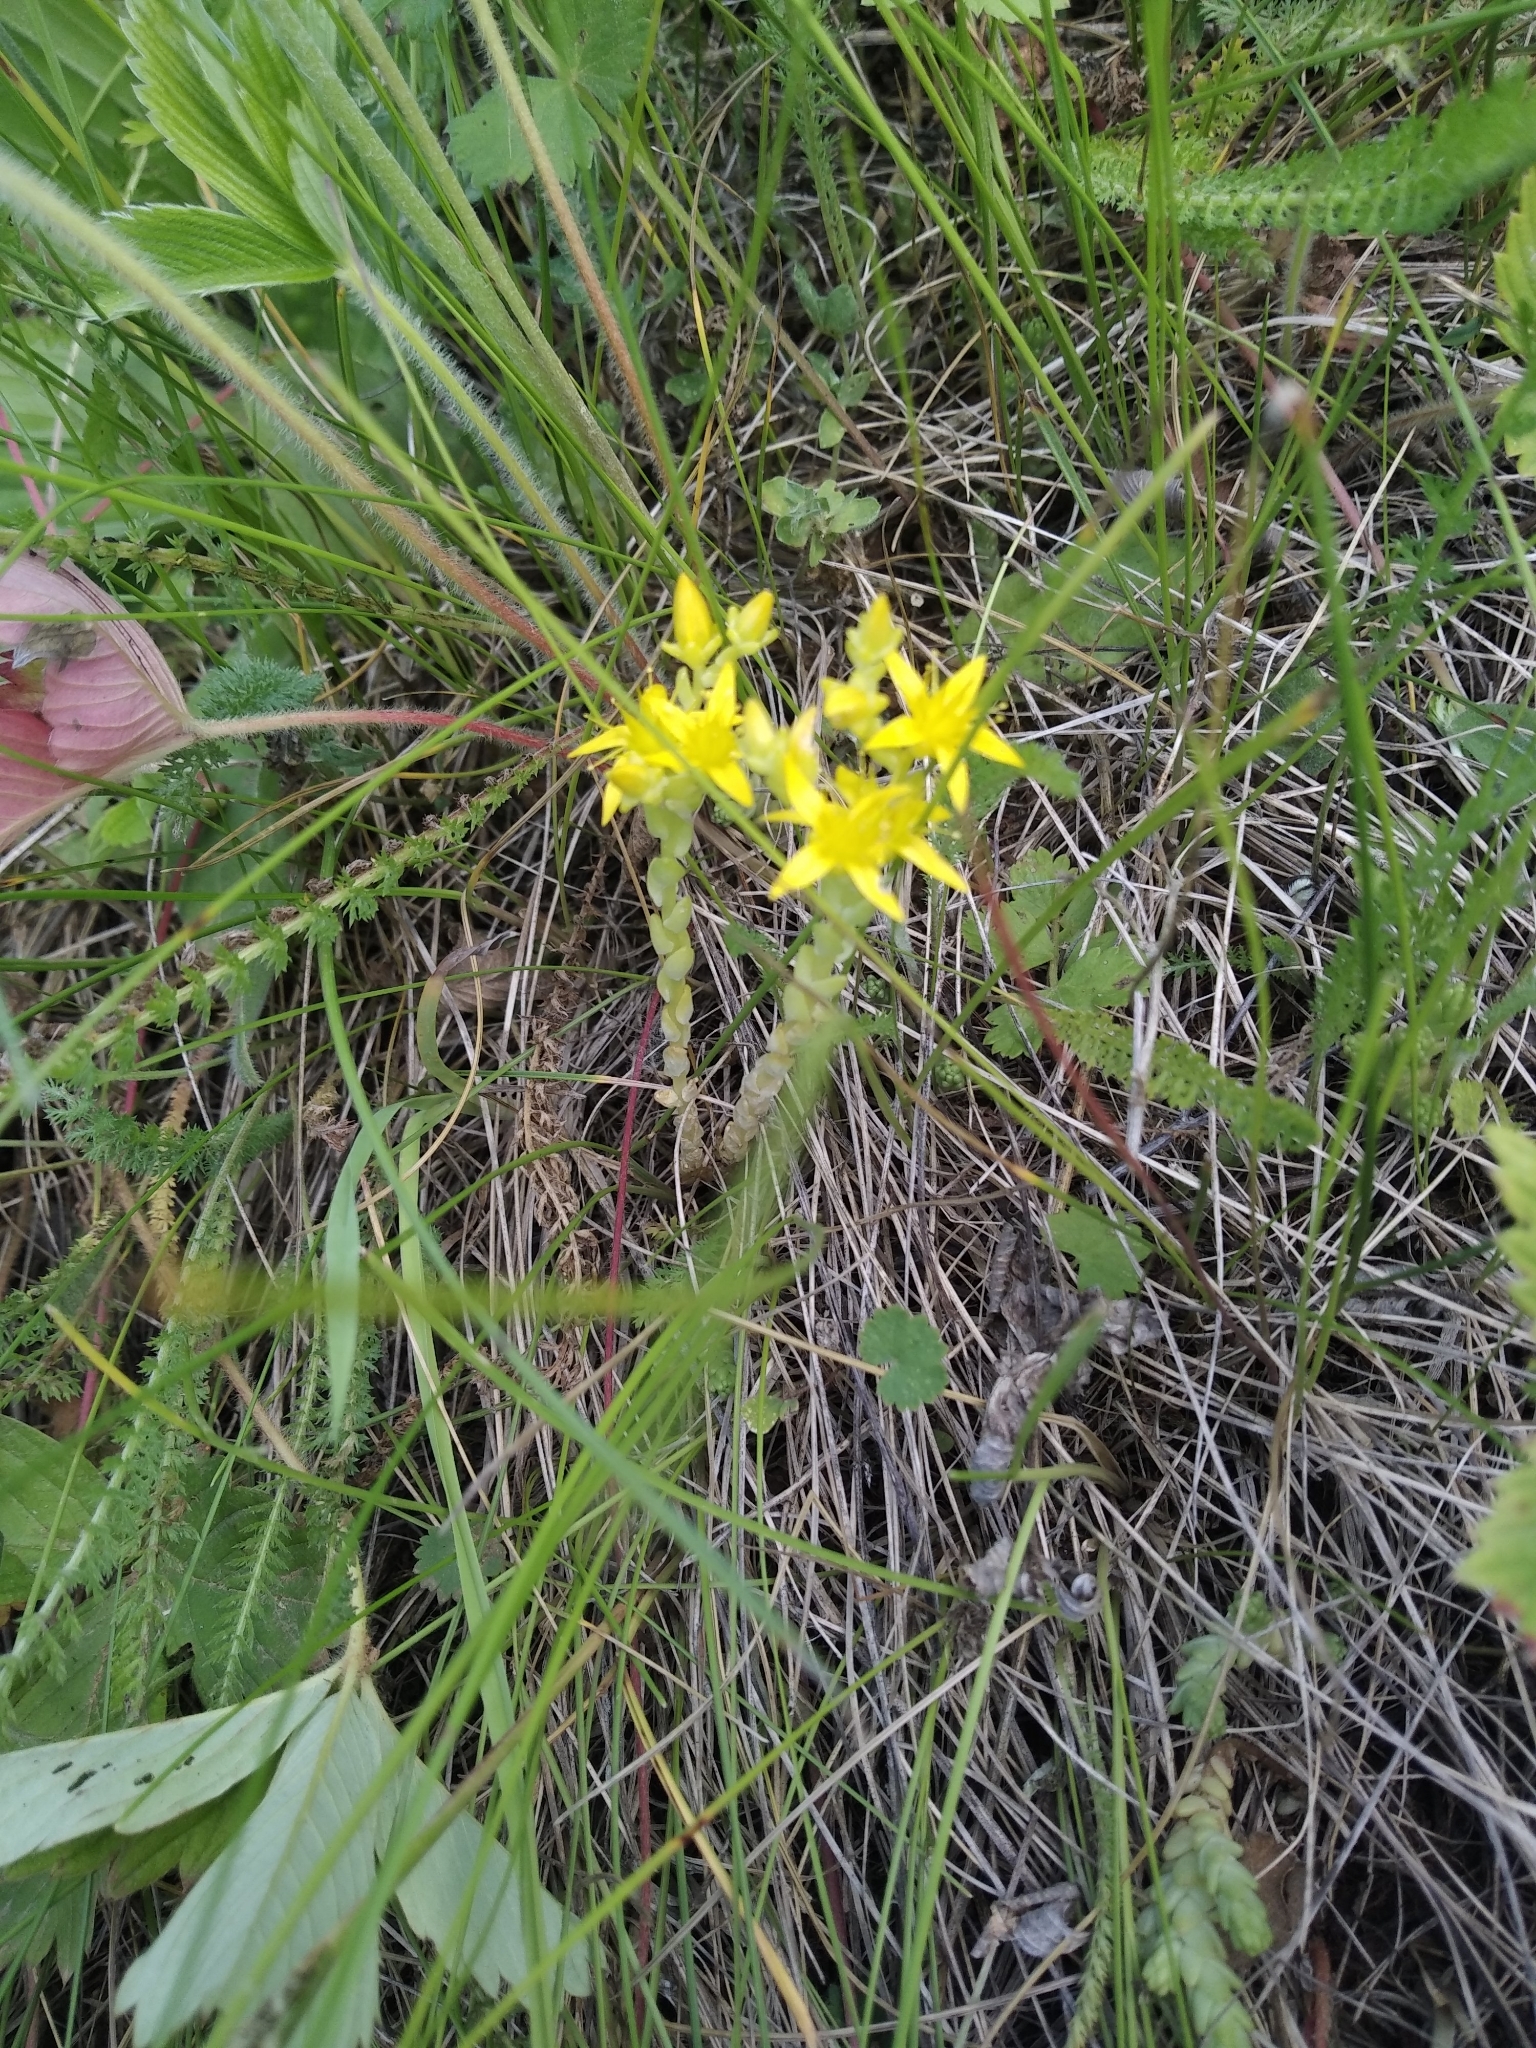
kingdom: Plantae
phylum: Tracheophyta
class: Magnoliopsida
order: Saxifragales
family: Crassulaceae
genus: Sedum
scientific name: Sedum acre
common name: Biting stonecrop
